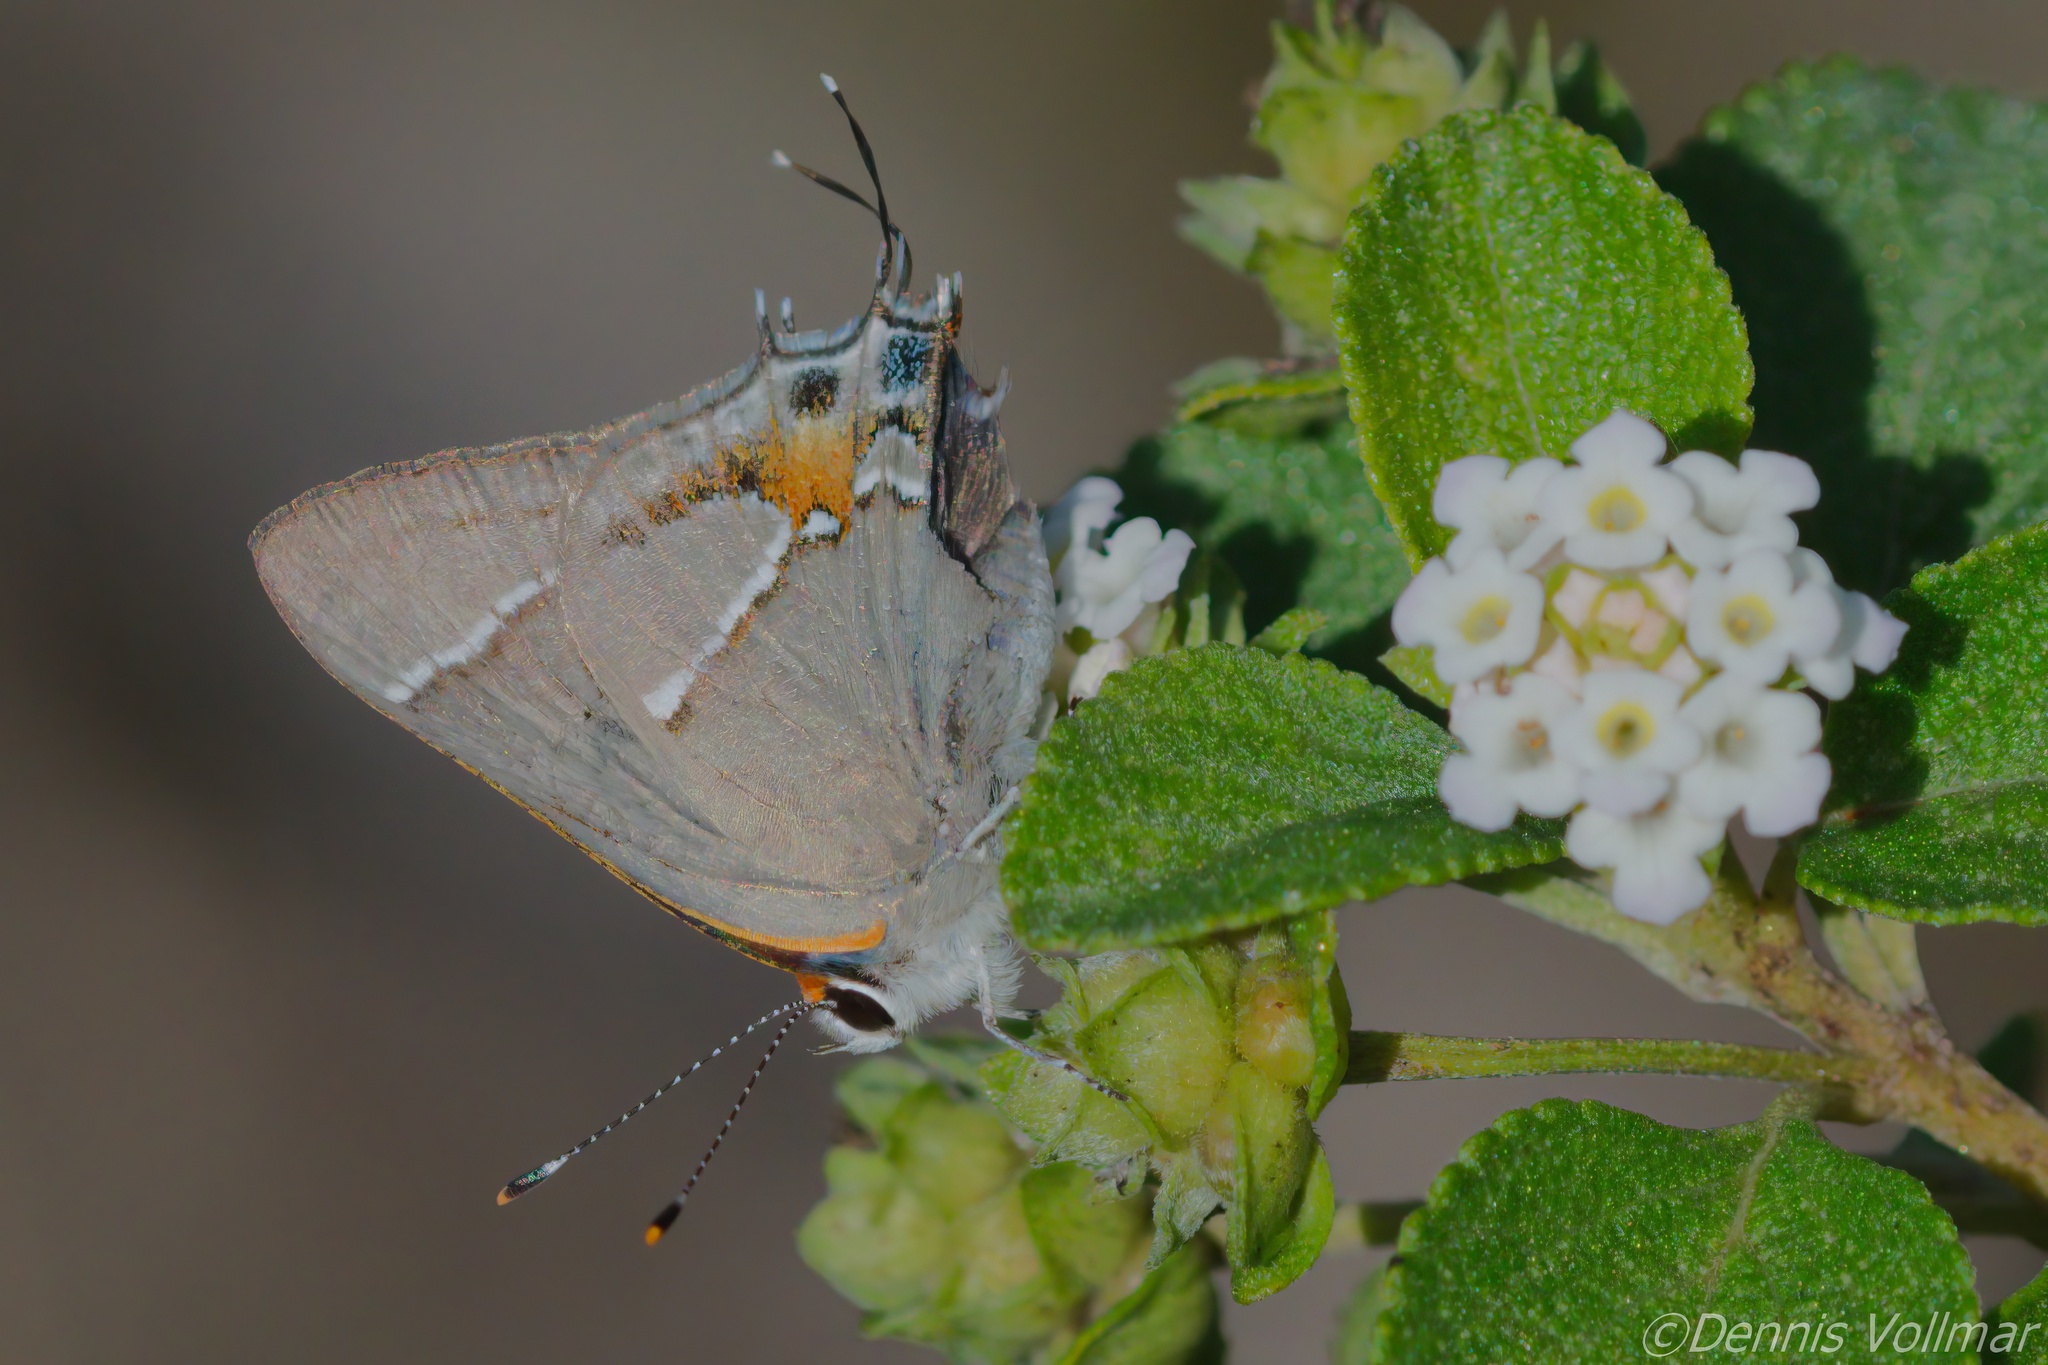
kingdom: Animalia
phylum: Arthropoda
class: Insecta
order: Lepidoptera
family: Lycaenidae
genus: Thecla
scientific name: Thecla martialis
